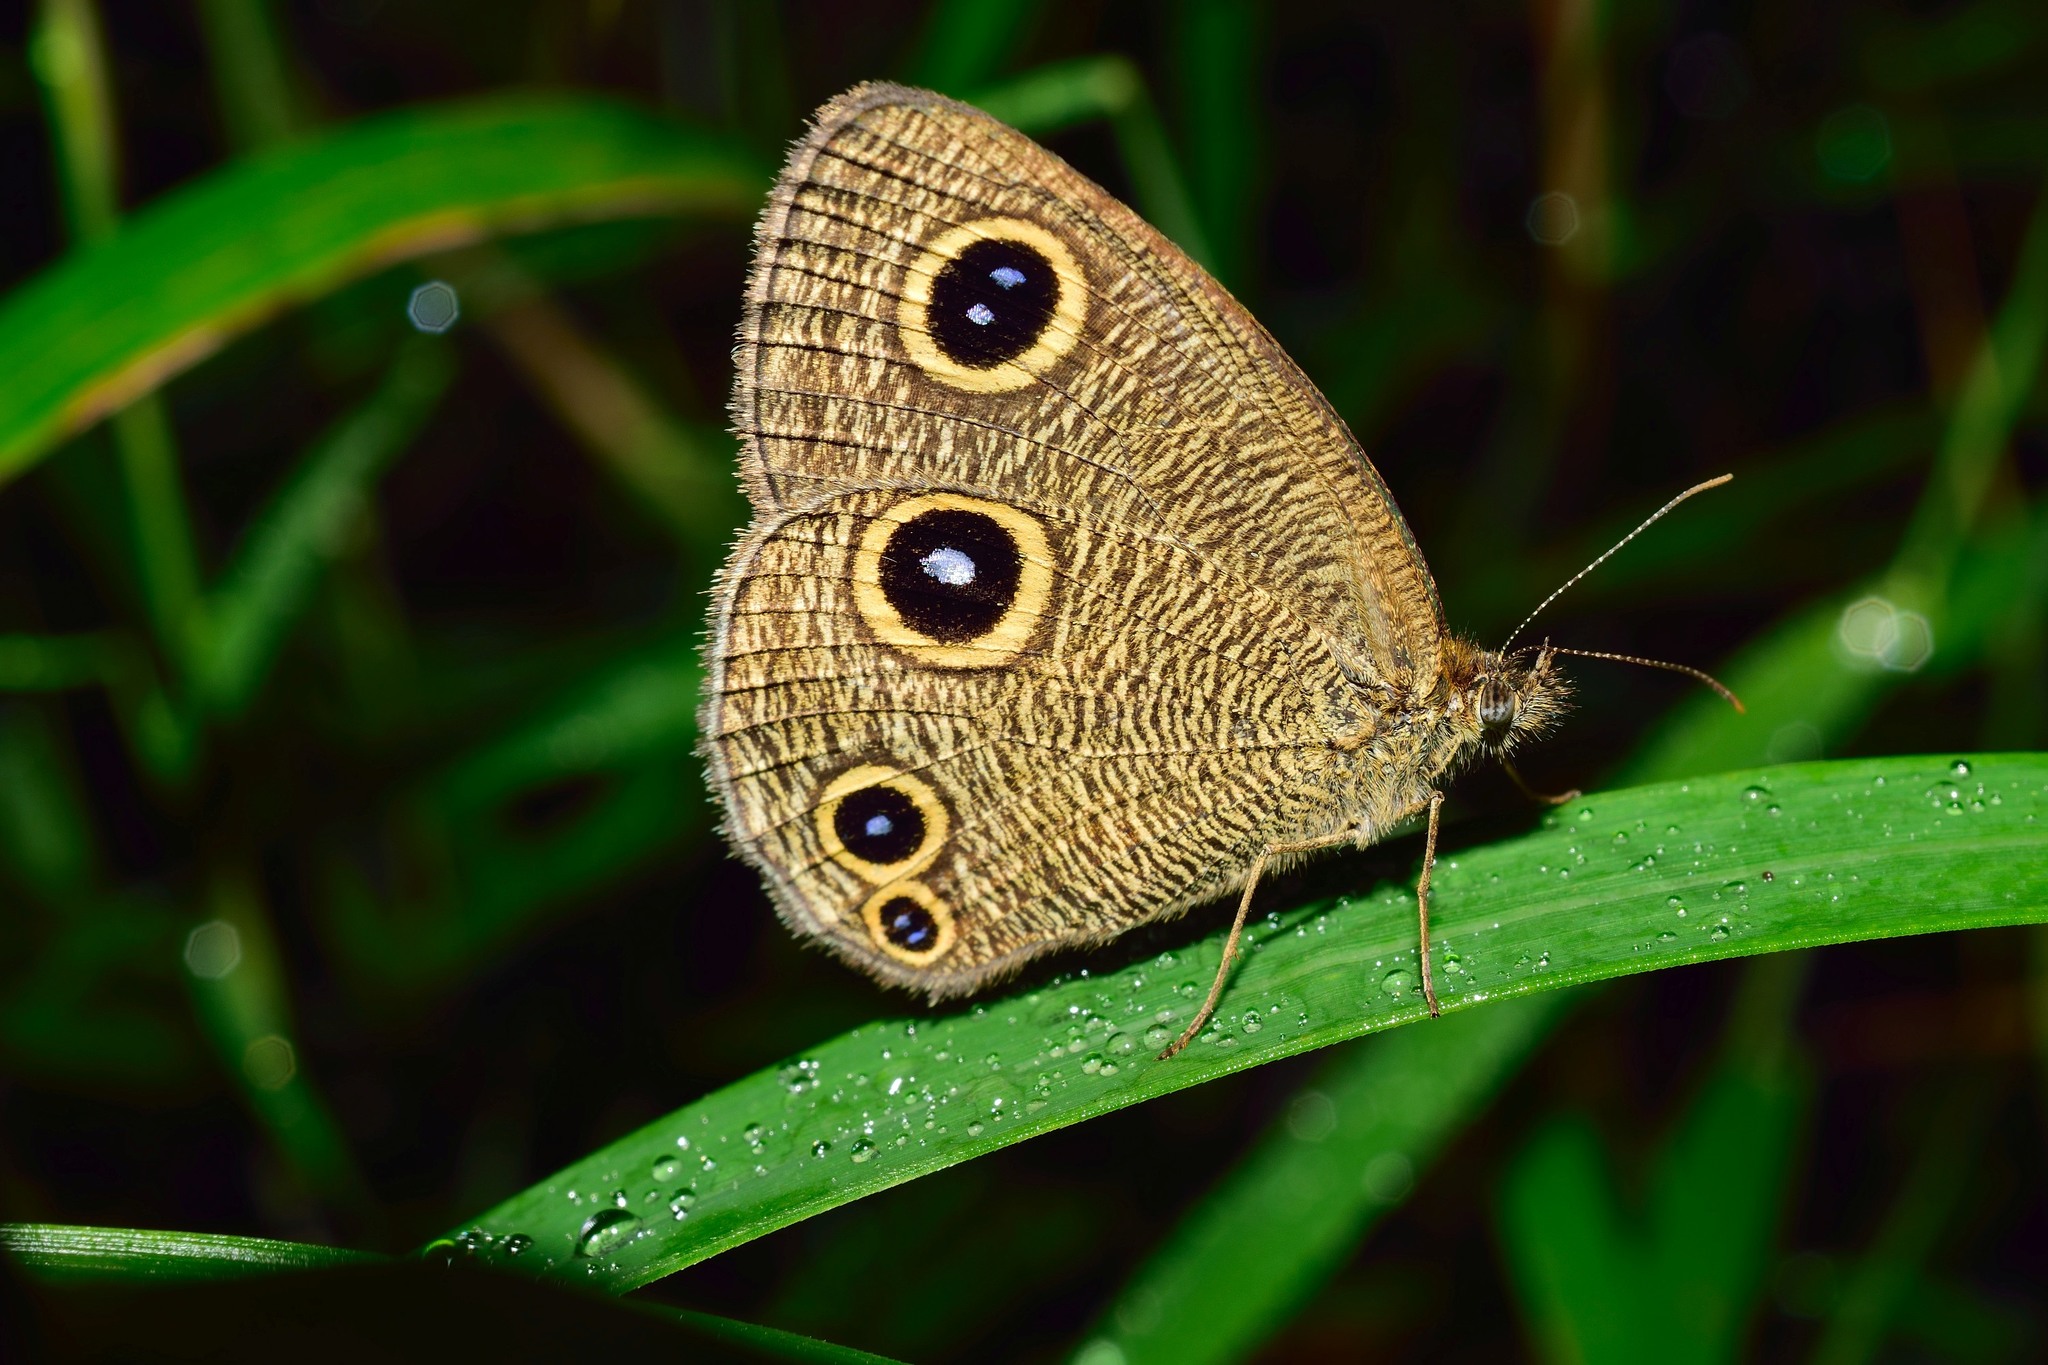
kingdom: Animalia
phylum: Arthropoda
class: Insecta
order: Lepidoptera
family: Nymphalidae
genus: Ypthima
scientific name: Ypthima newara
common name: Newar three ring
